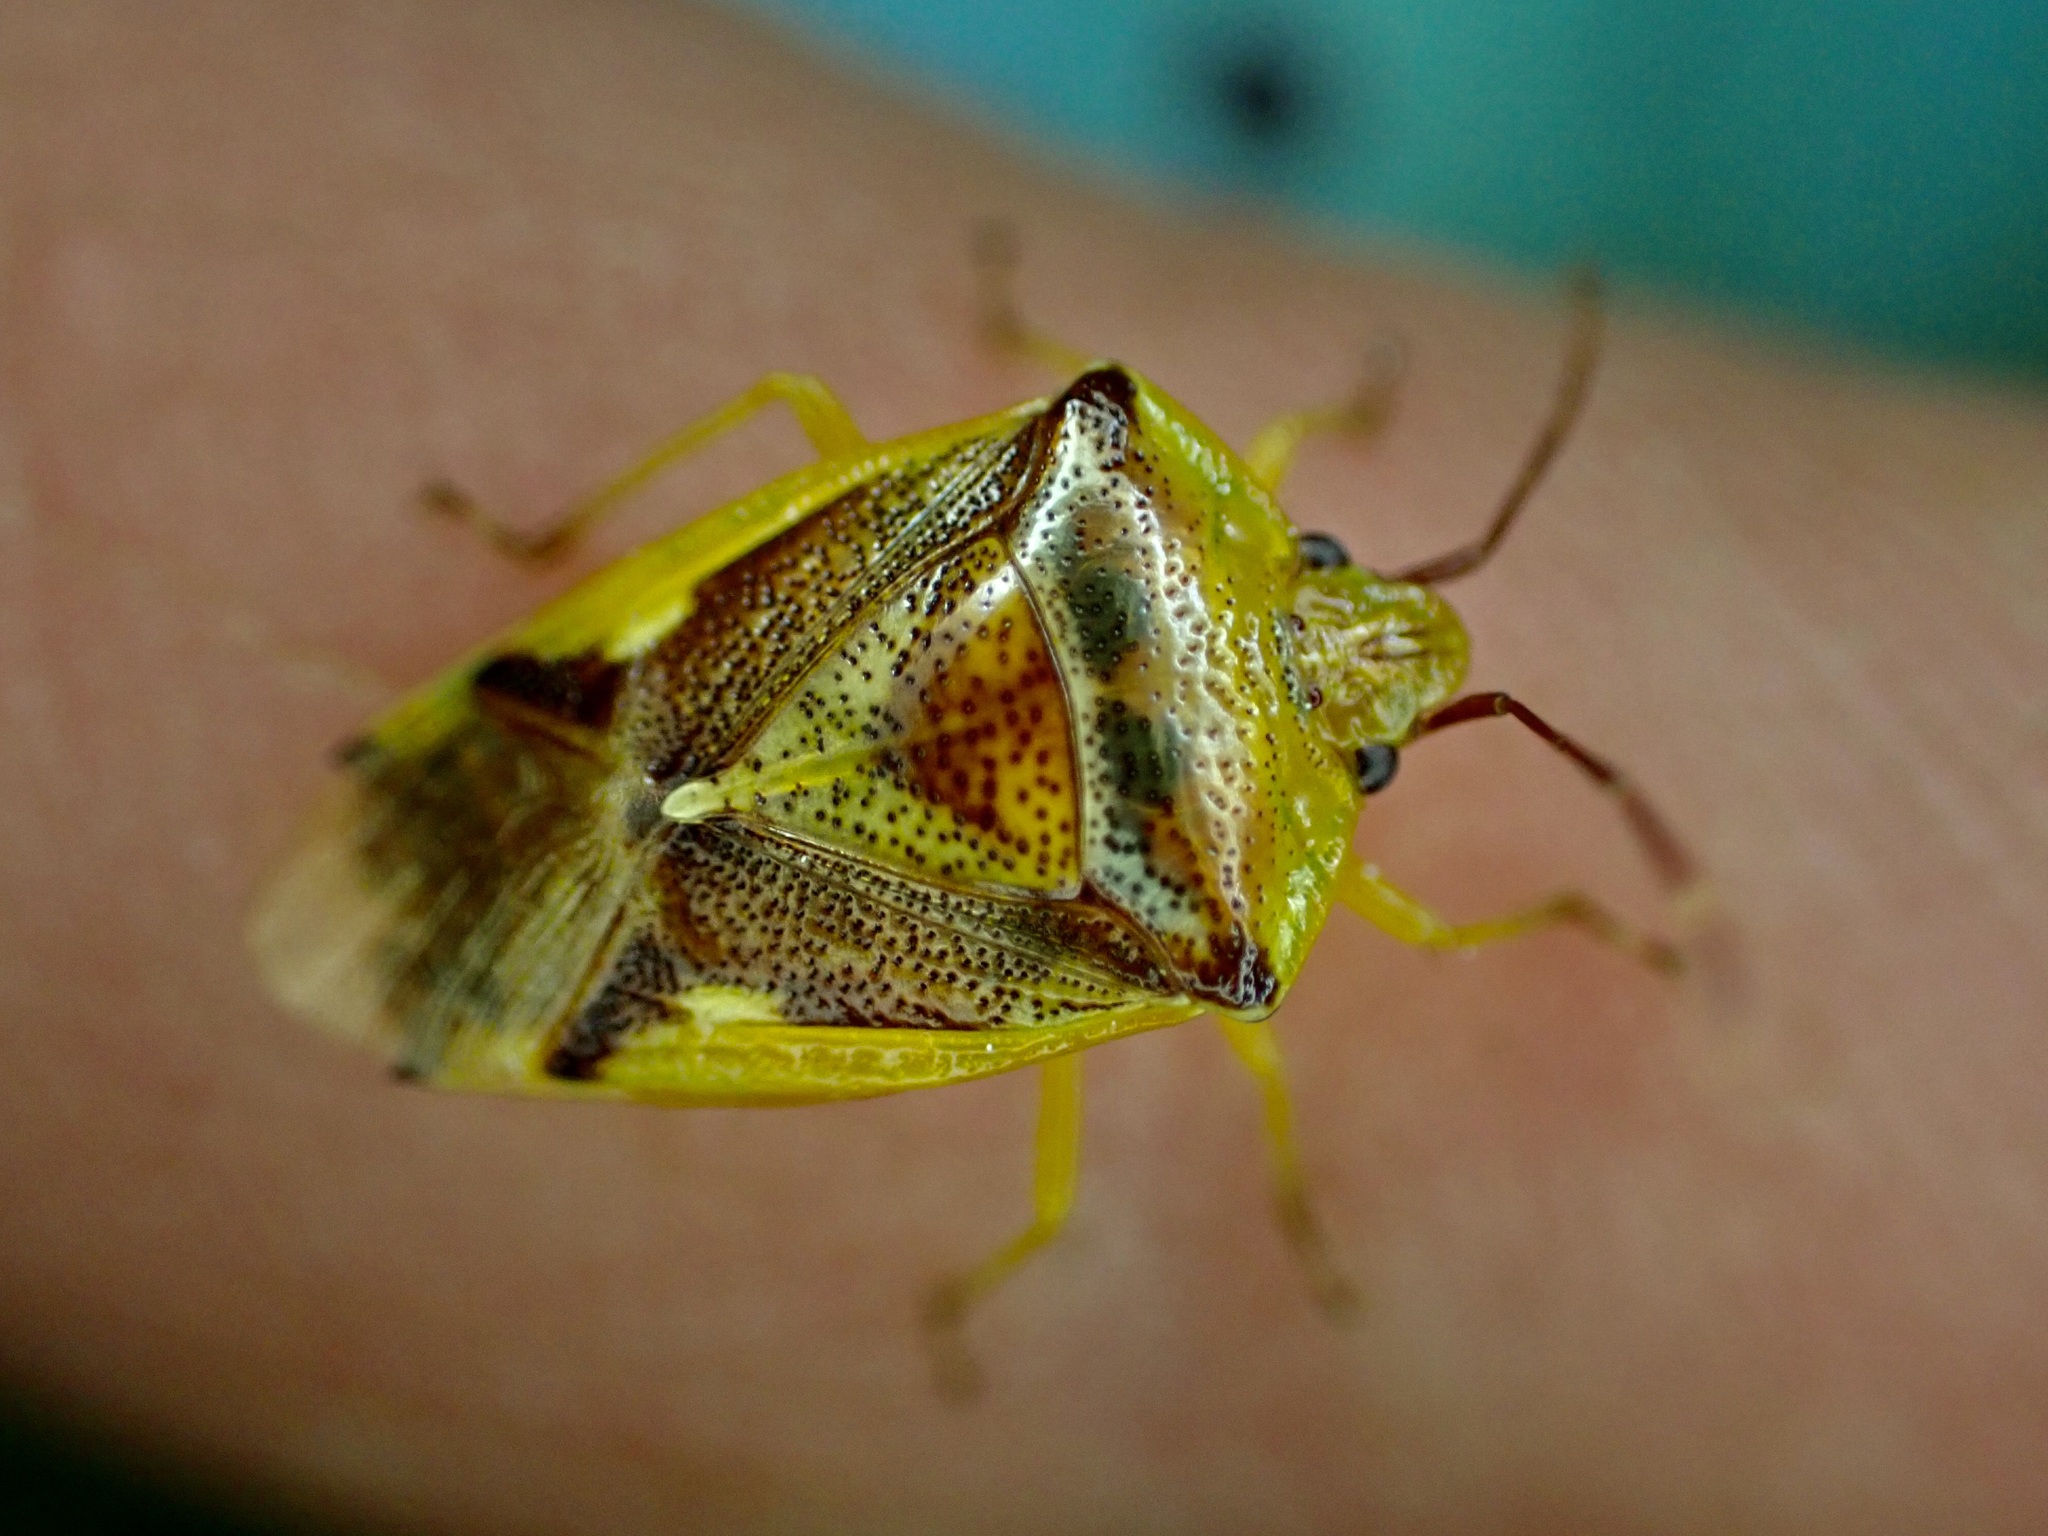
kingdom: Animalia
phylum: Arthropoda
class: Insecta
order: Hemiptera
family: Acanthosomatidae
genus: Oncacontias
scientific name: Oncacontias vittatus
